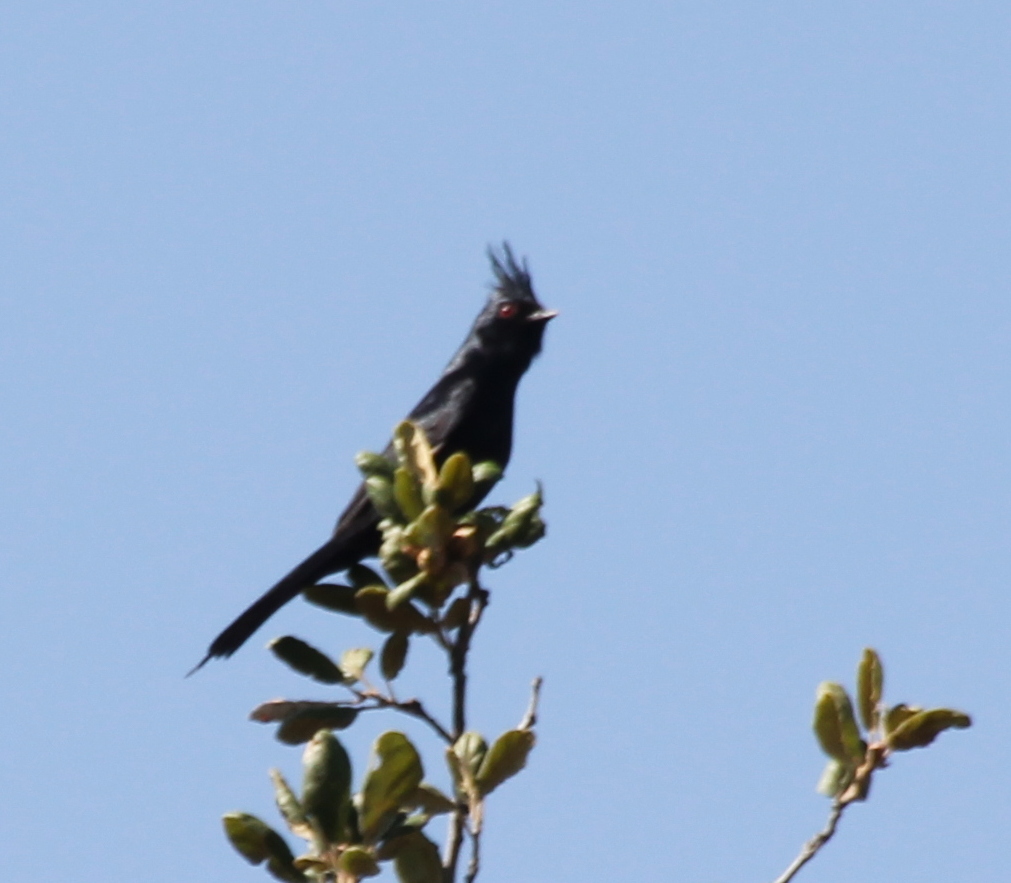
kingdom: Animalia
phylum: Chordata
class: Aves
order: Passeriformes
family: Ptilogonatidae
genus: Phainopepla
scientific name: Phainopepla nitens
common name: Phainopepla
